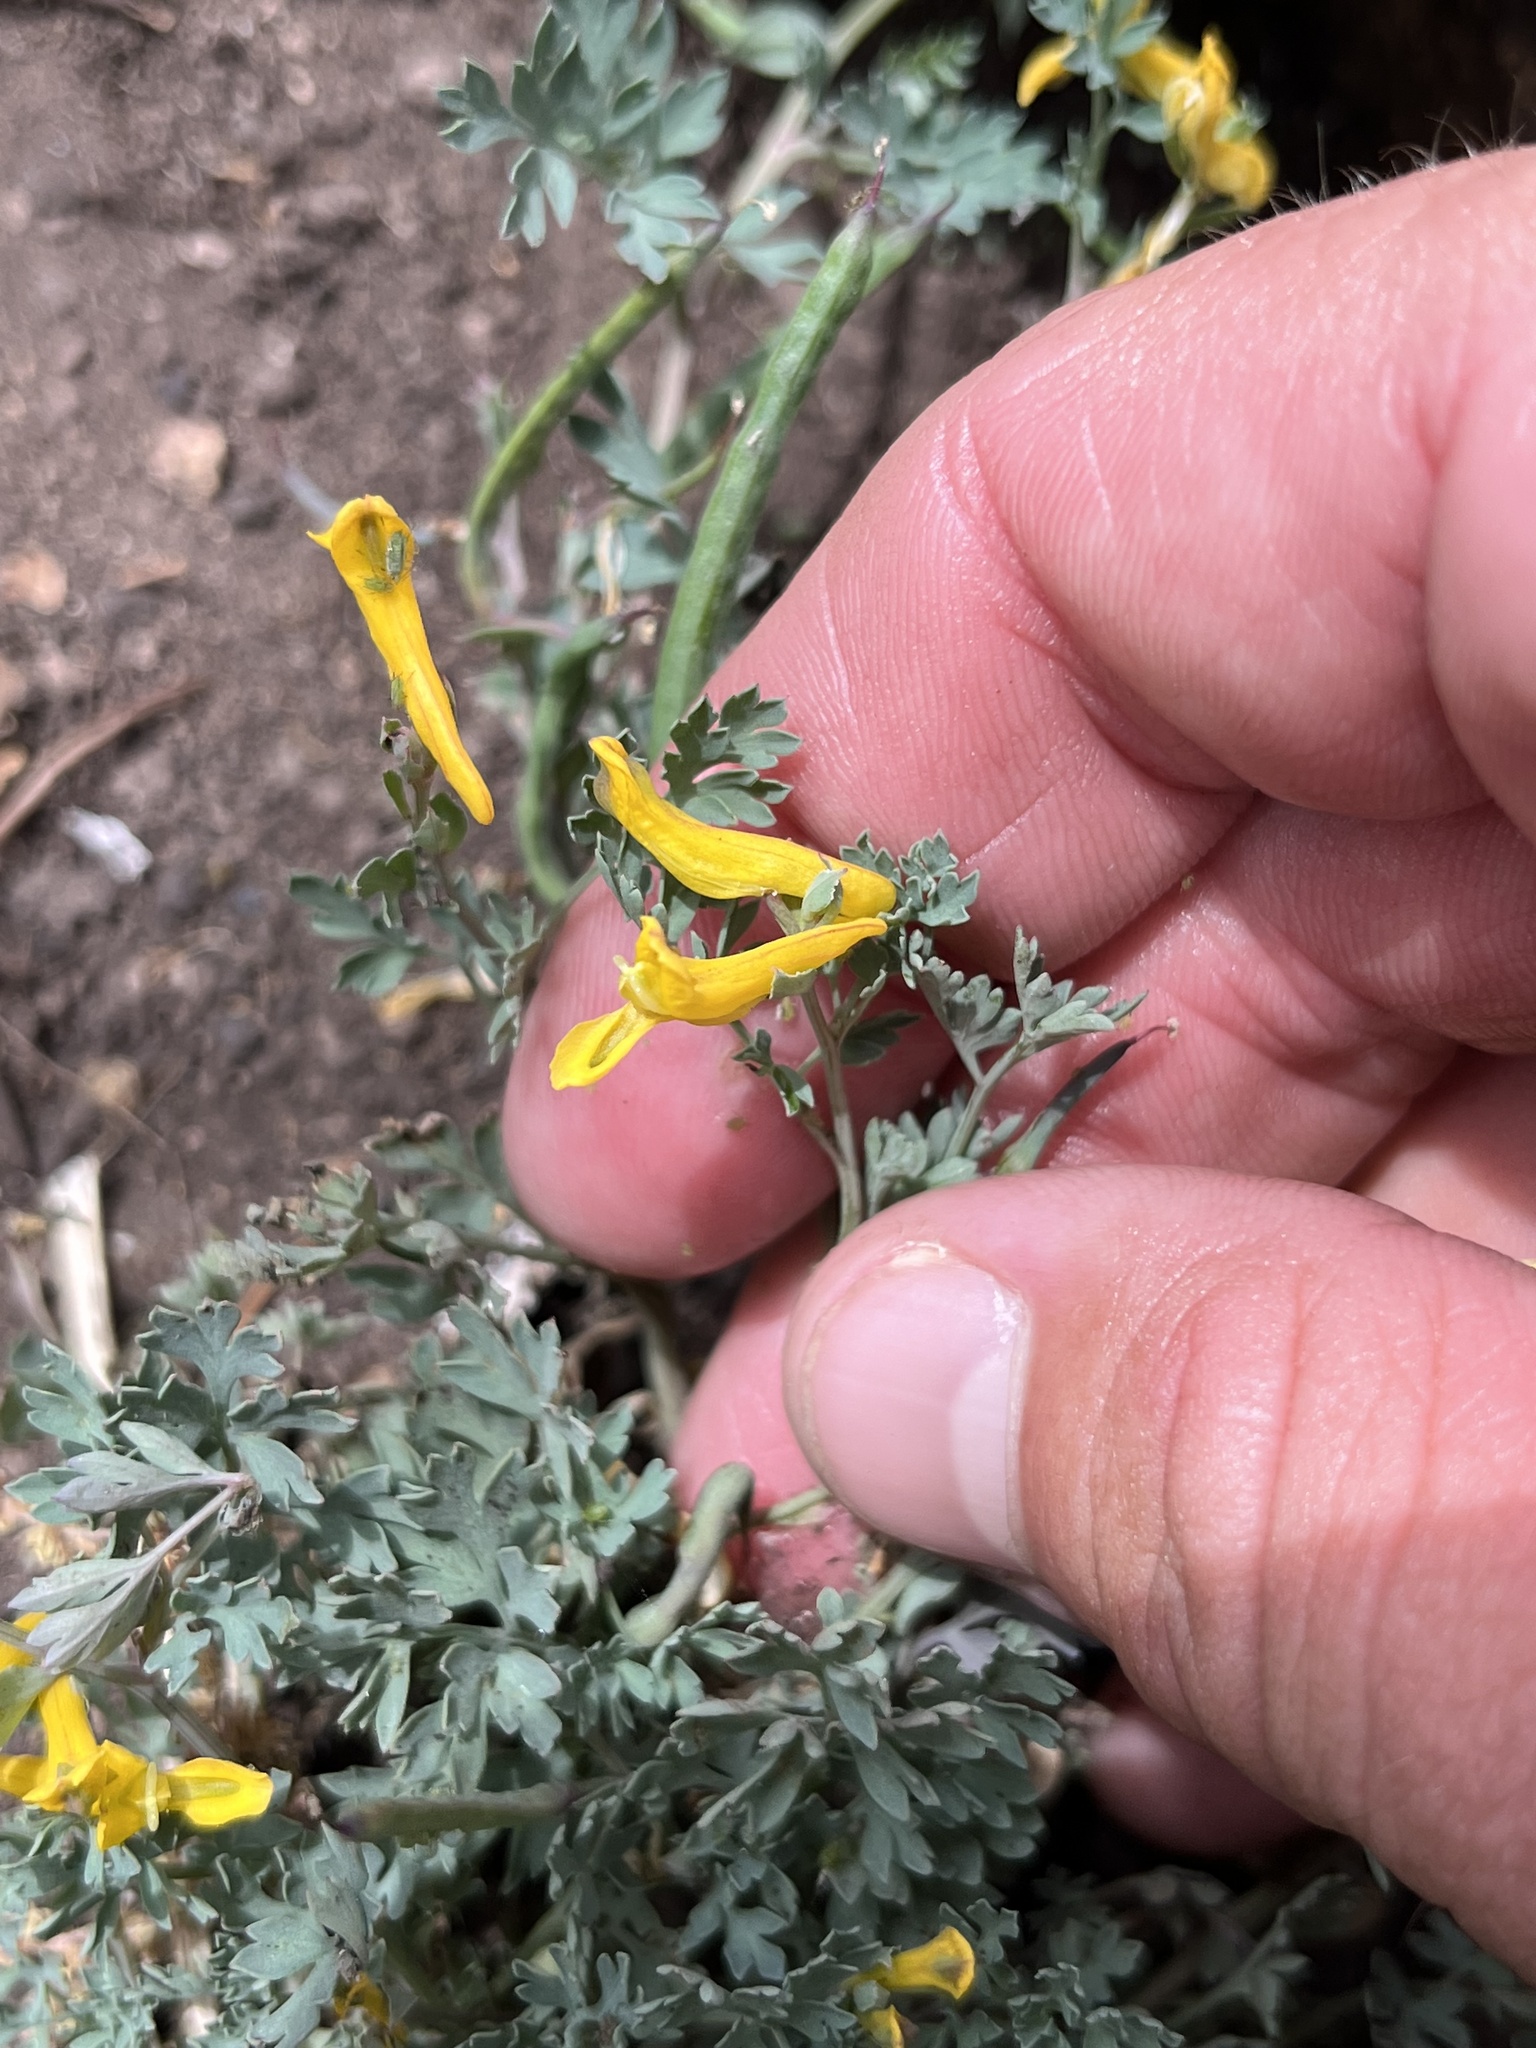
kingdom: Plantae
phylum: Tracheophyta
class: Magnoliopsida
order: Ranunculales
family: Papaveraceae
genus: Corydalis
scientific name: Corydalis aurea
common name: Golden corydalis
